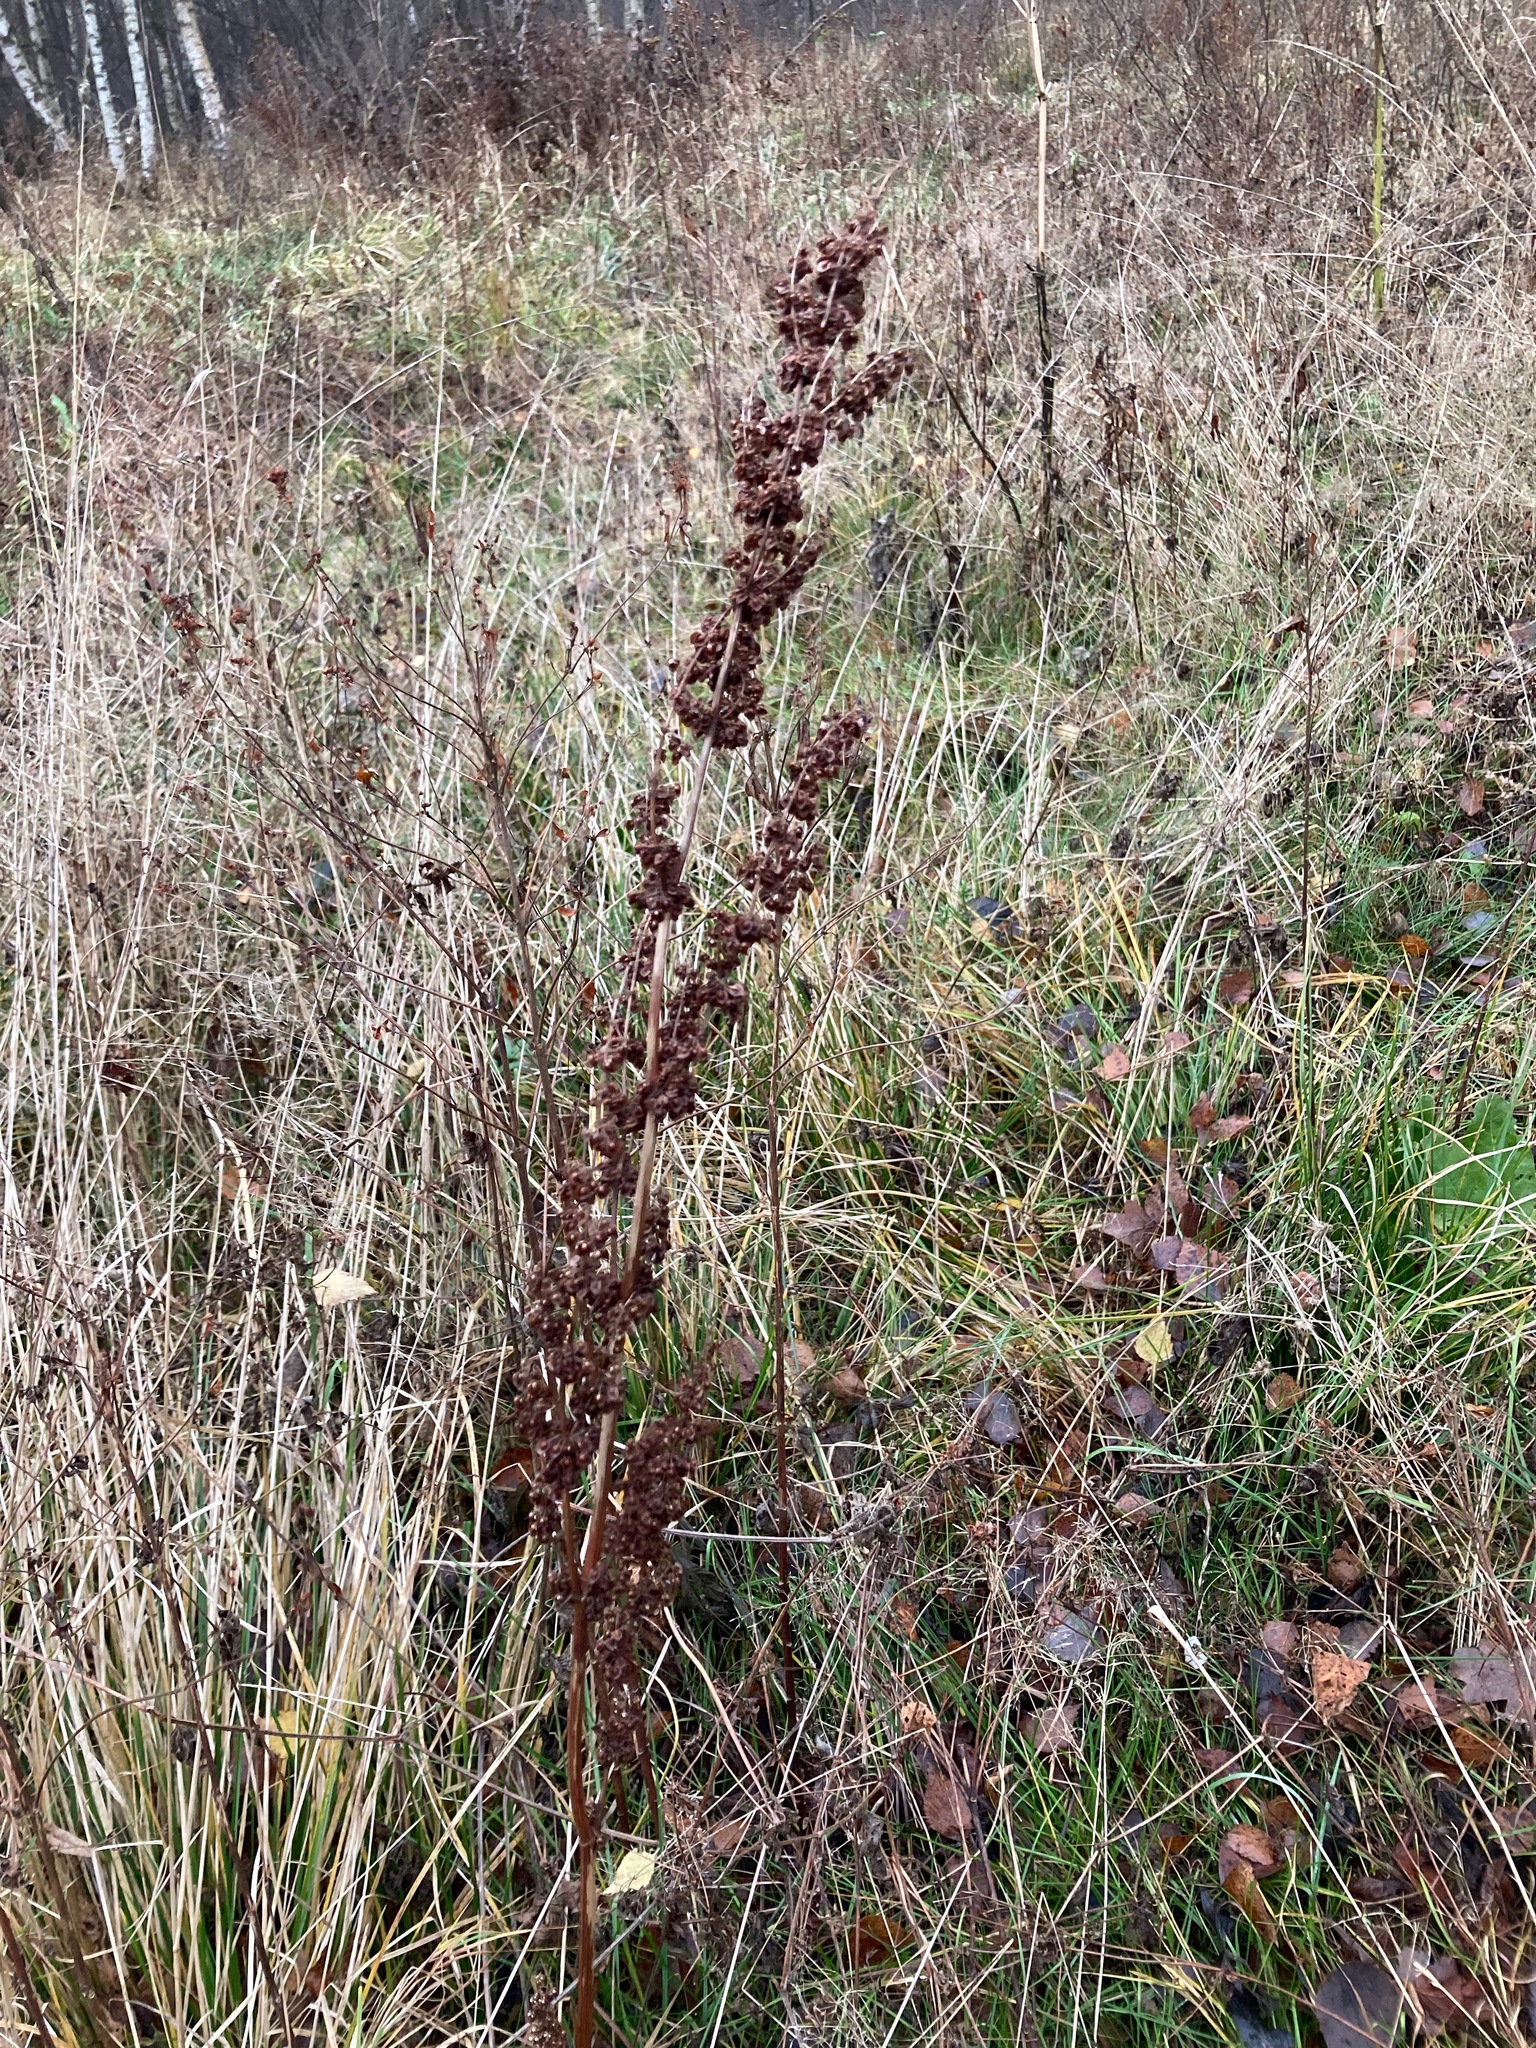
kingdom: Plantae
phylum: Tracheophyta
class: Magnoliopsida
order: Caryophyllales
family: Polygonaceae
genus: Rumex
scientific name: Rumex crispus
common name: Curled dock
